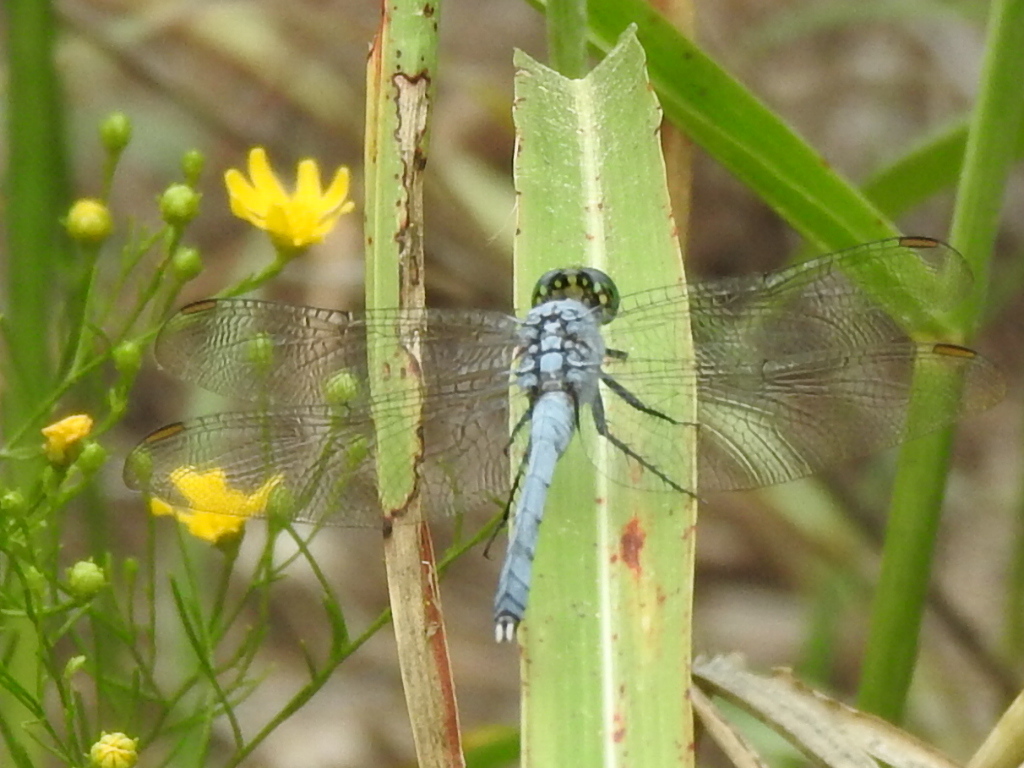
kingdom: Animalia
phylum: Arthropoda
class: Insecta
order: Odonata
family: Libellulidae
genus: Erythemis
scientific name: Erythemis simplicicollis
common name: Eastern pondhawk
